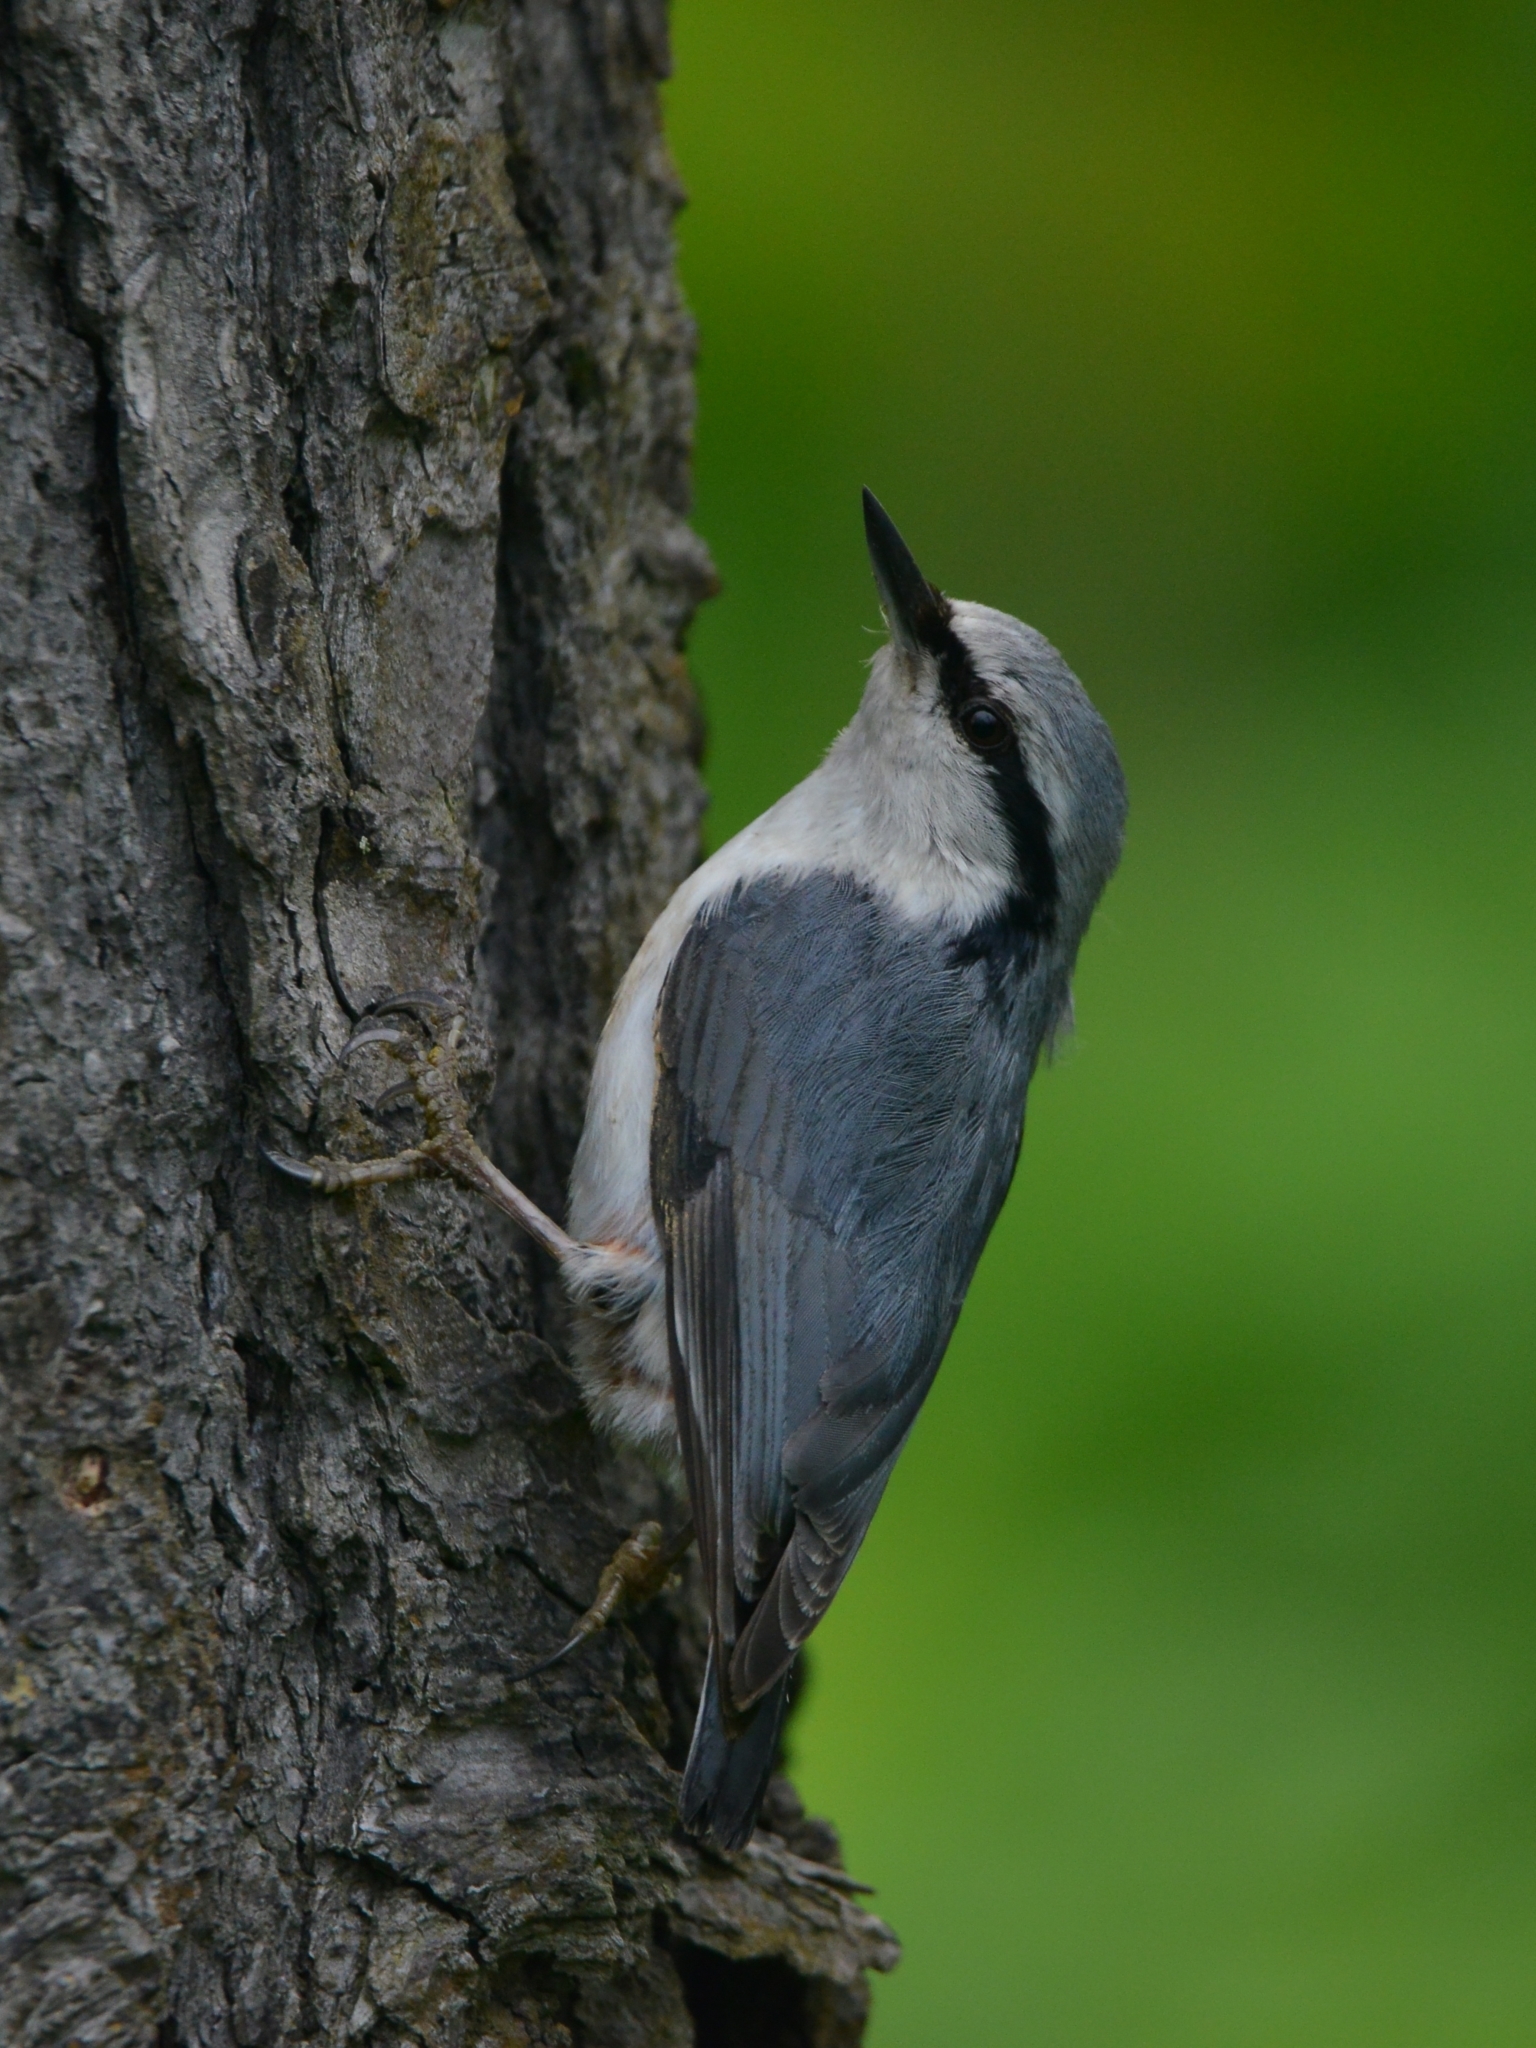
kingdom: Animalia
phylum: Chordata
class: Aves
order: Passeriformes
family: Sittidae
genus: Sitta
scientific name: Sitta europaea
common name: Eurasian nuthatch
